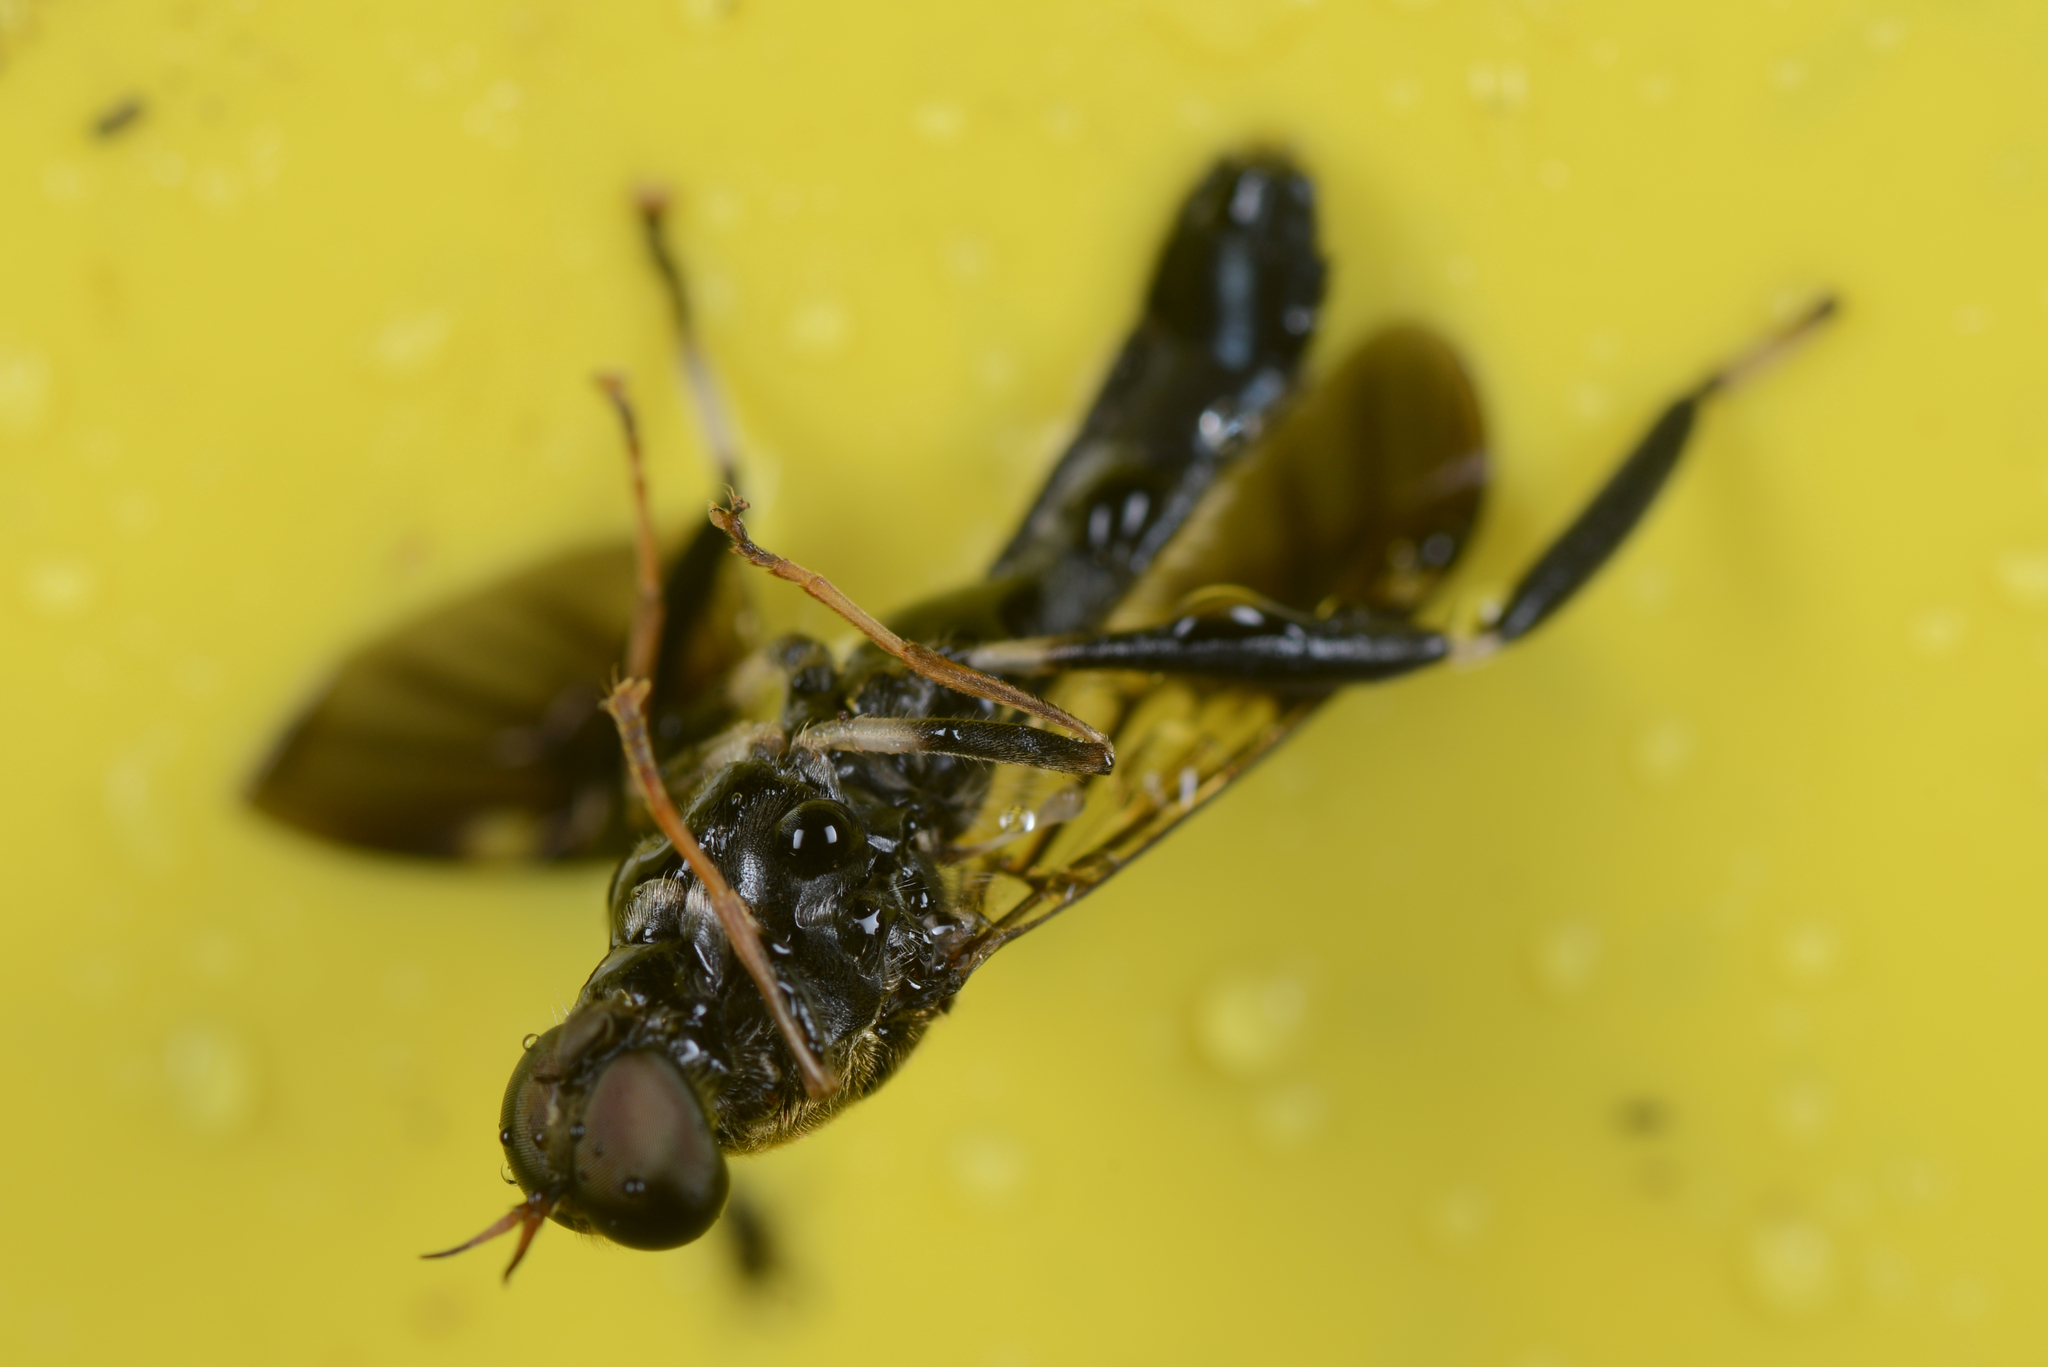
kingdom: Animalia
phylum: Arthropoda
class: Insecta
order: Diptera
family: Stratiomyidae
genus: Exaireta
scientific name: Exaireta spinigera
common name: Blue soldier fly
